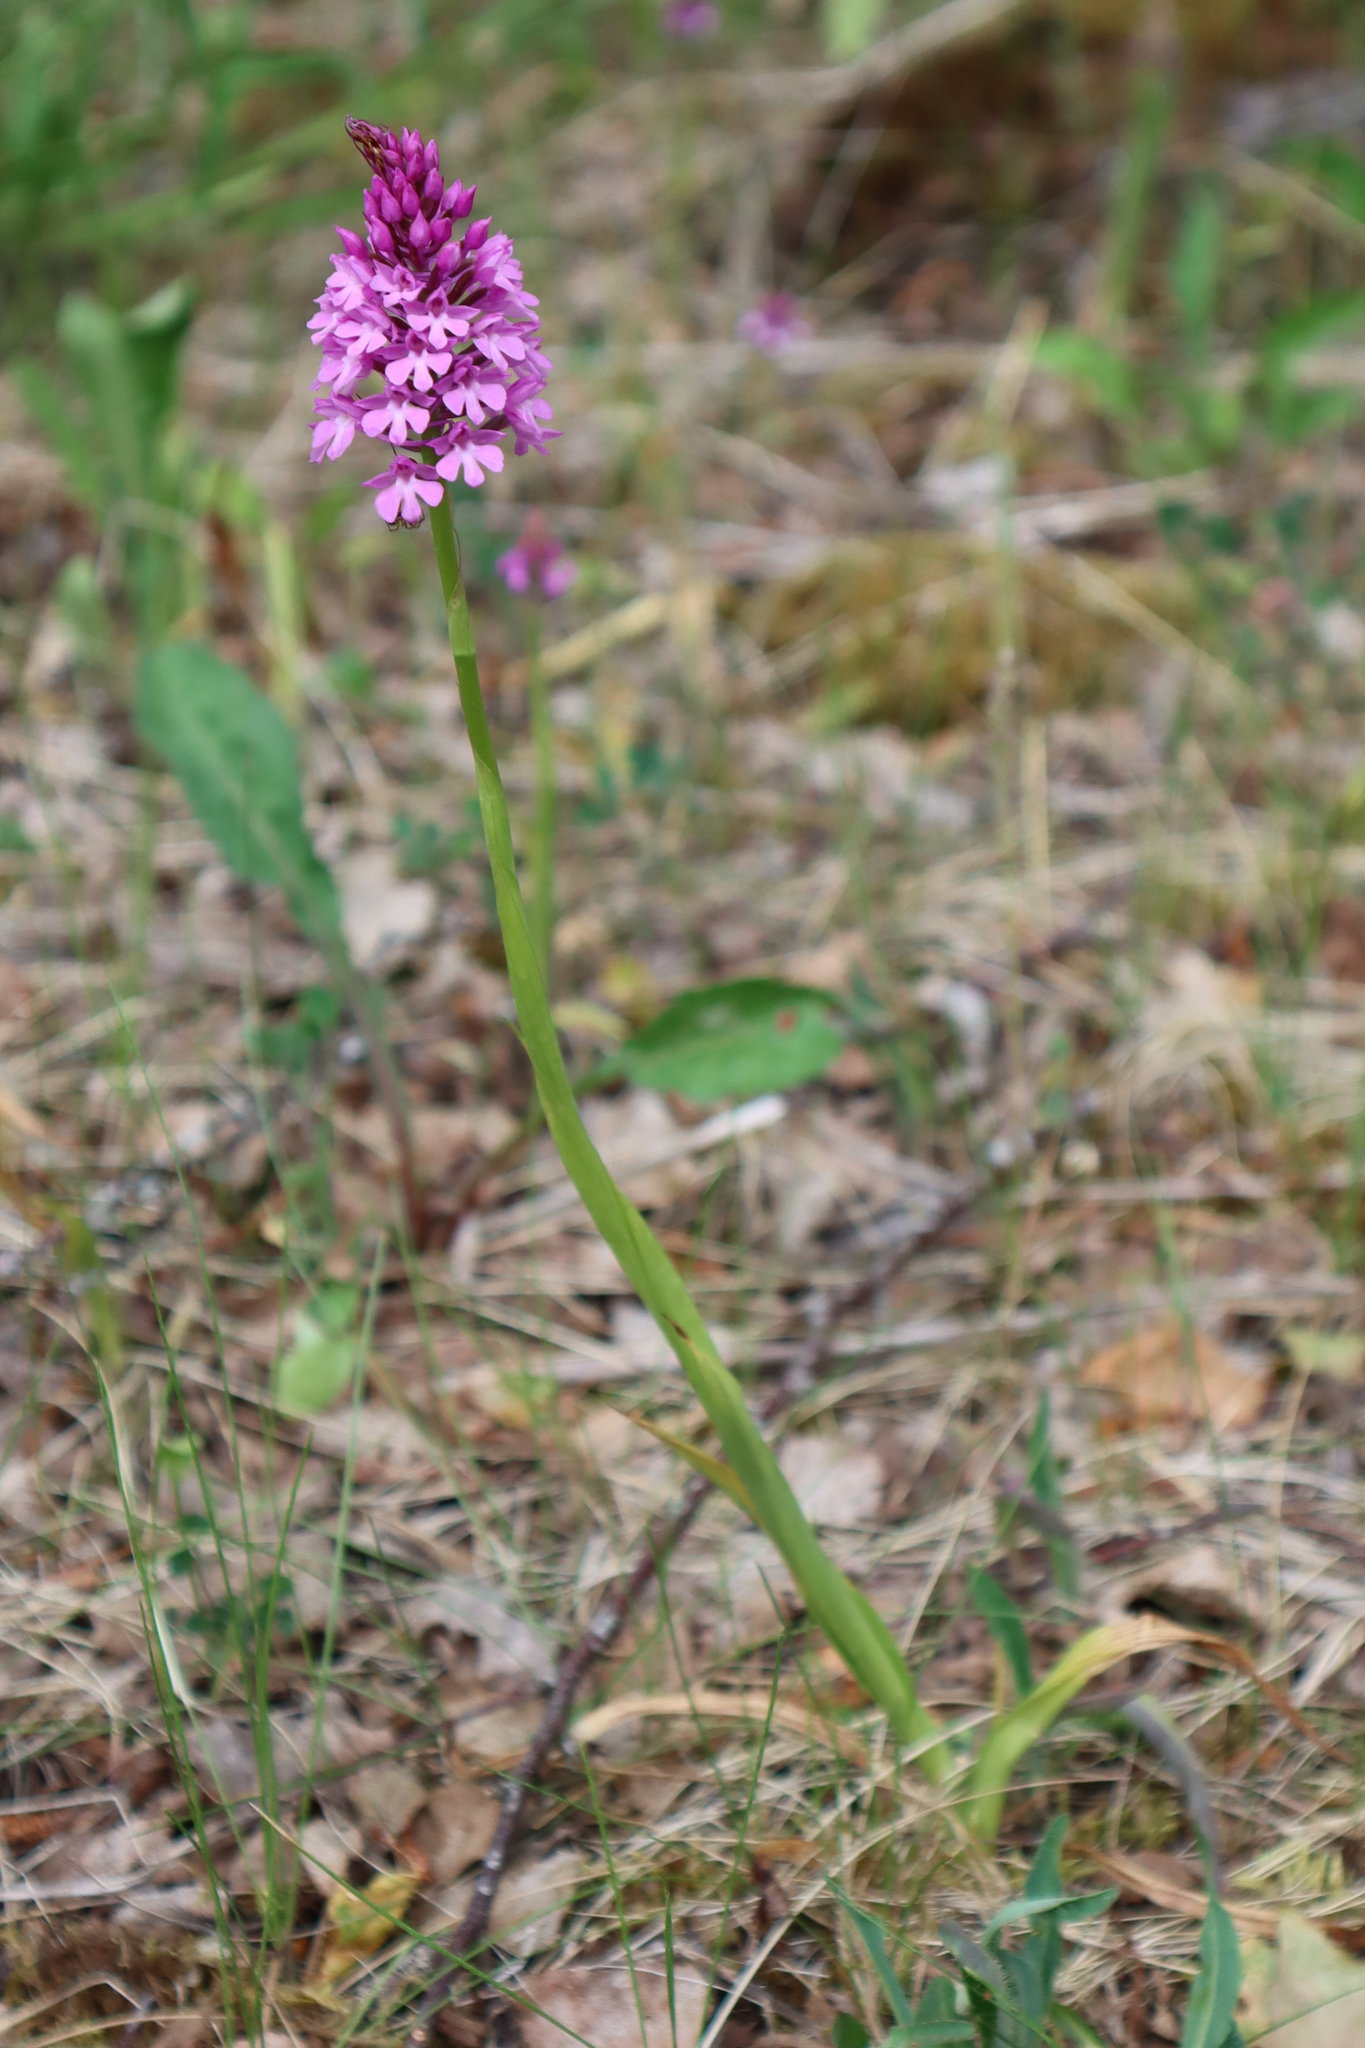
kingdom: Plantae
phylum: Tracheophyta
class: Liliopsida
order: Asparagales
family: Orchidaceae
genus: Anacamptis
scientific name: Anacamptis pyramidalis
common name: Pyramidal orchid
